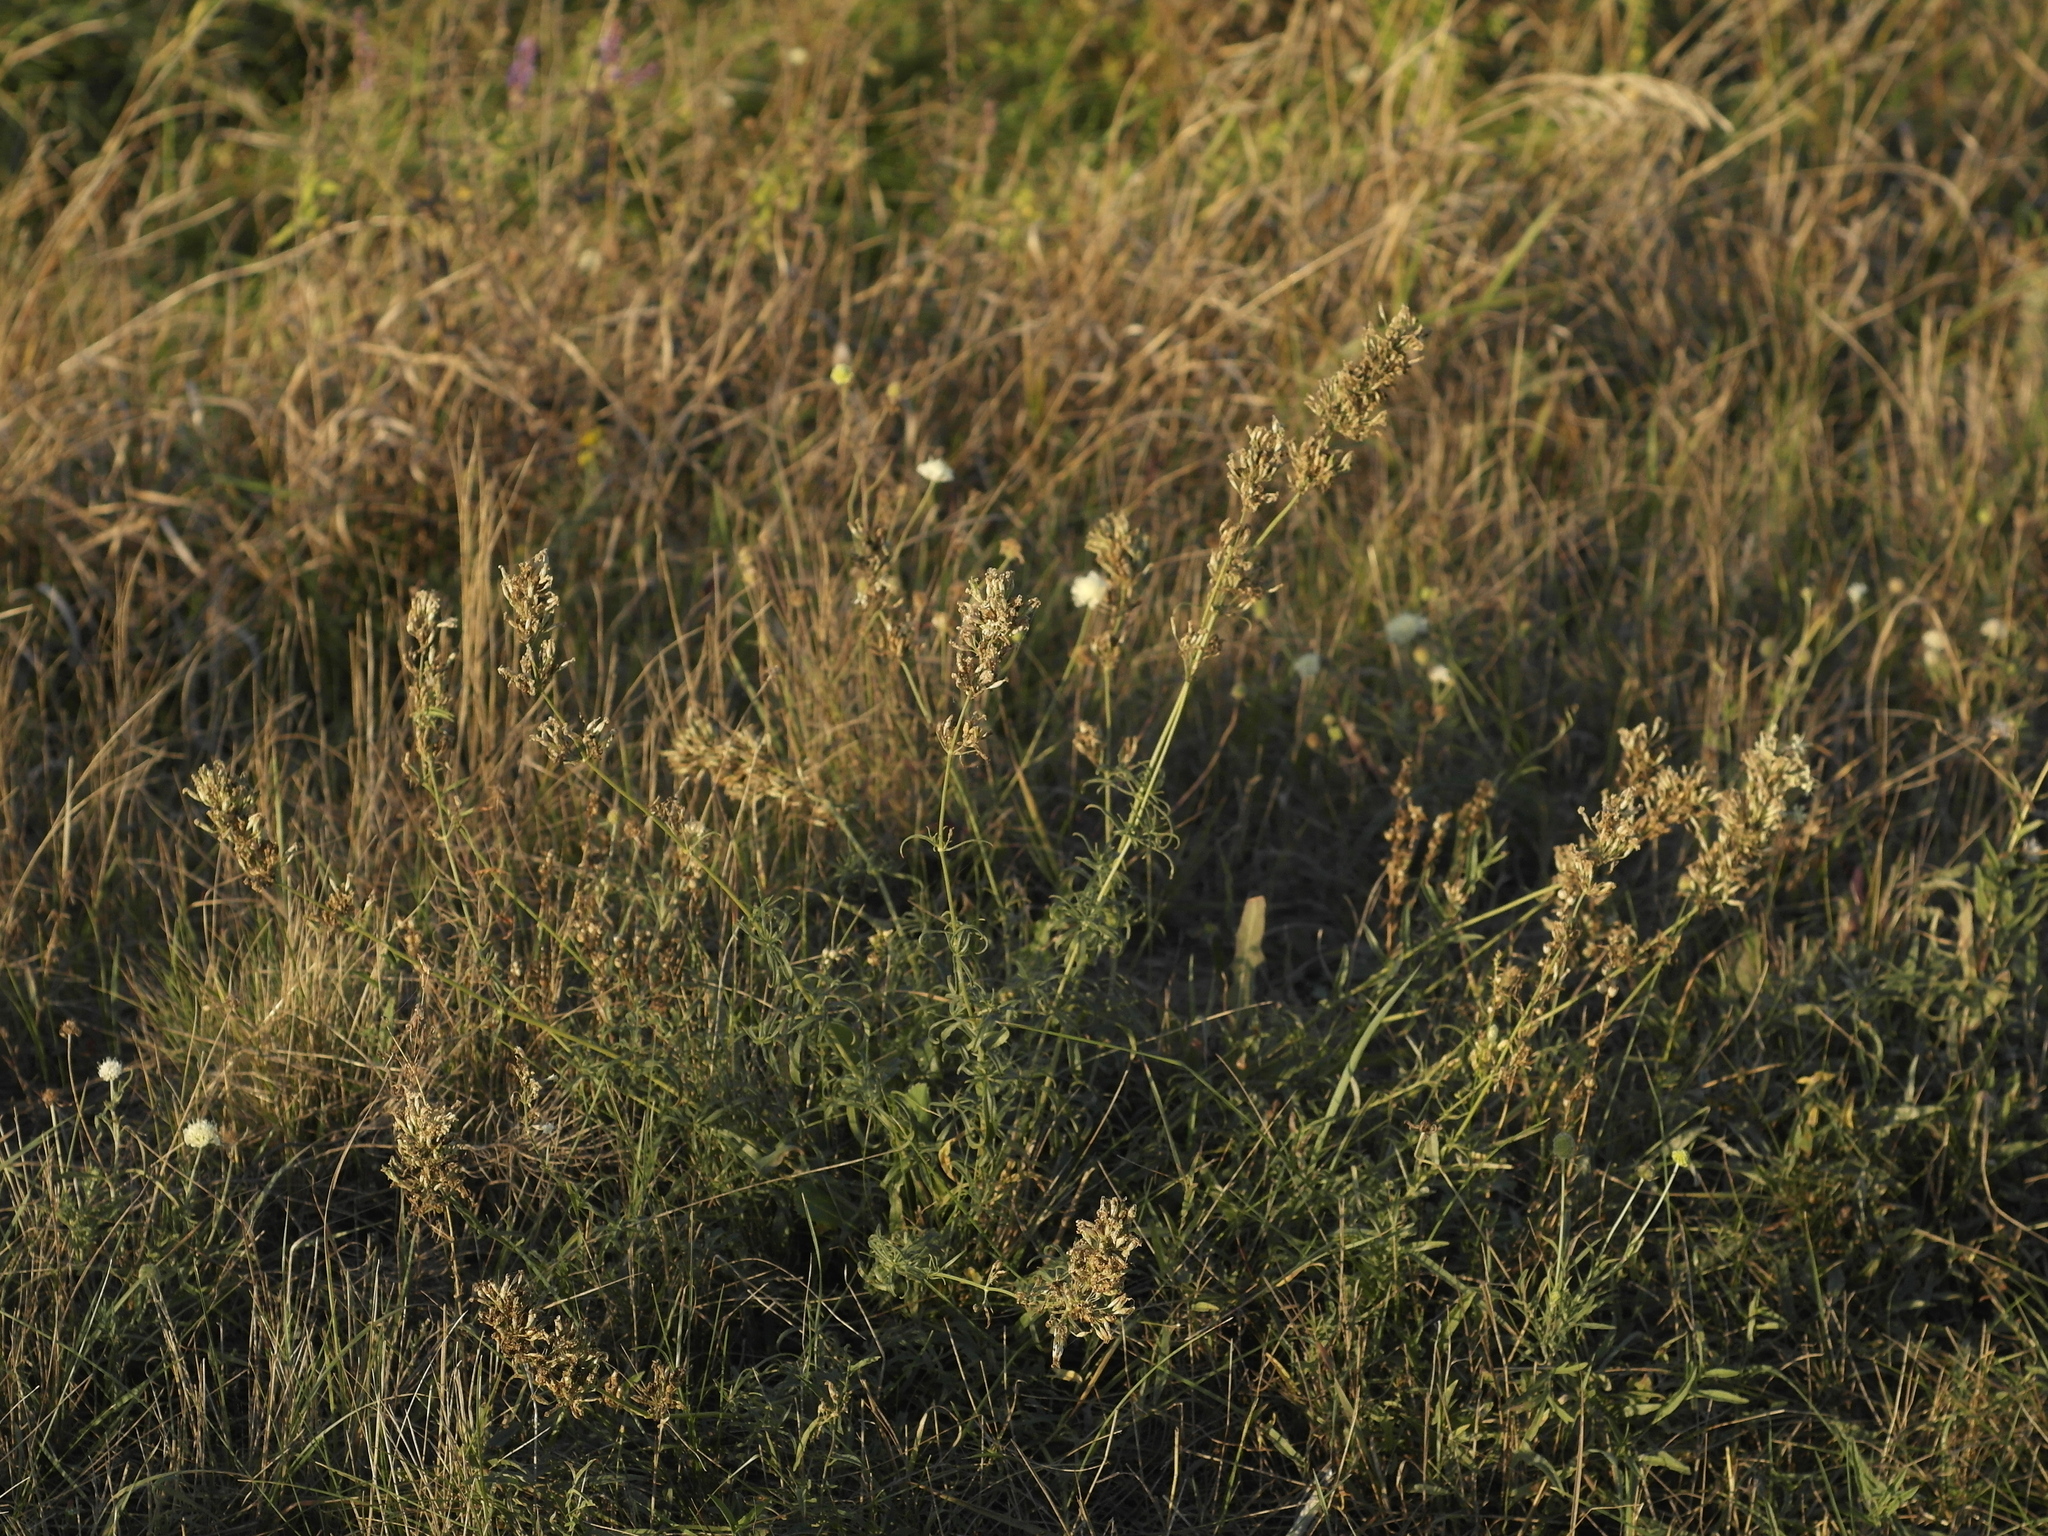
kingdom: Plantae
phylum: Tracheophyta
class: Magnoliopsida
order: Caryophyllales
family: Caryophyllaceae
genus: Silene
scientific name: Silene sibirica
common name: Siberian catchfly
